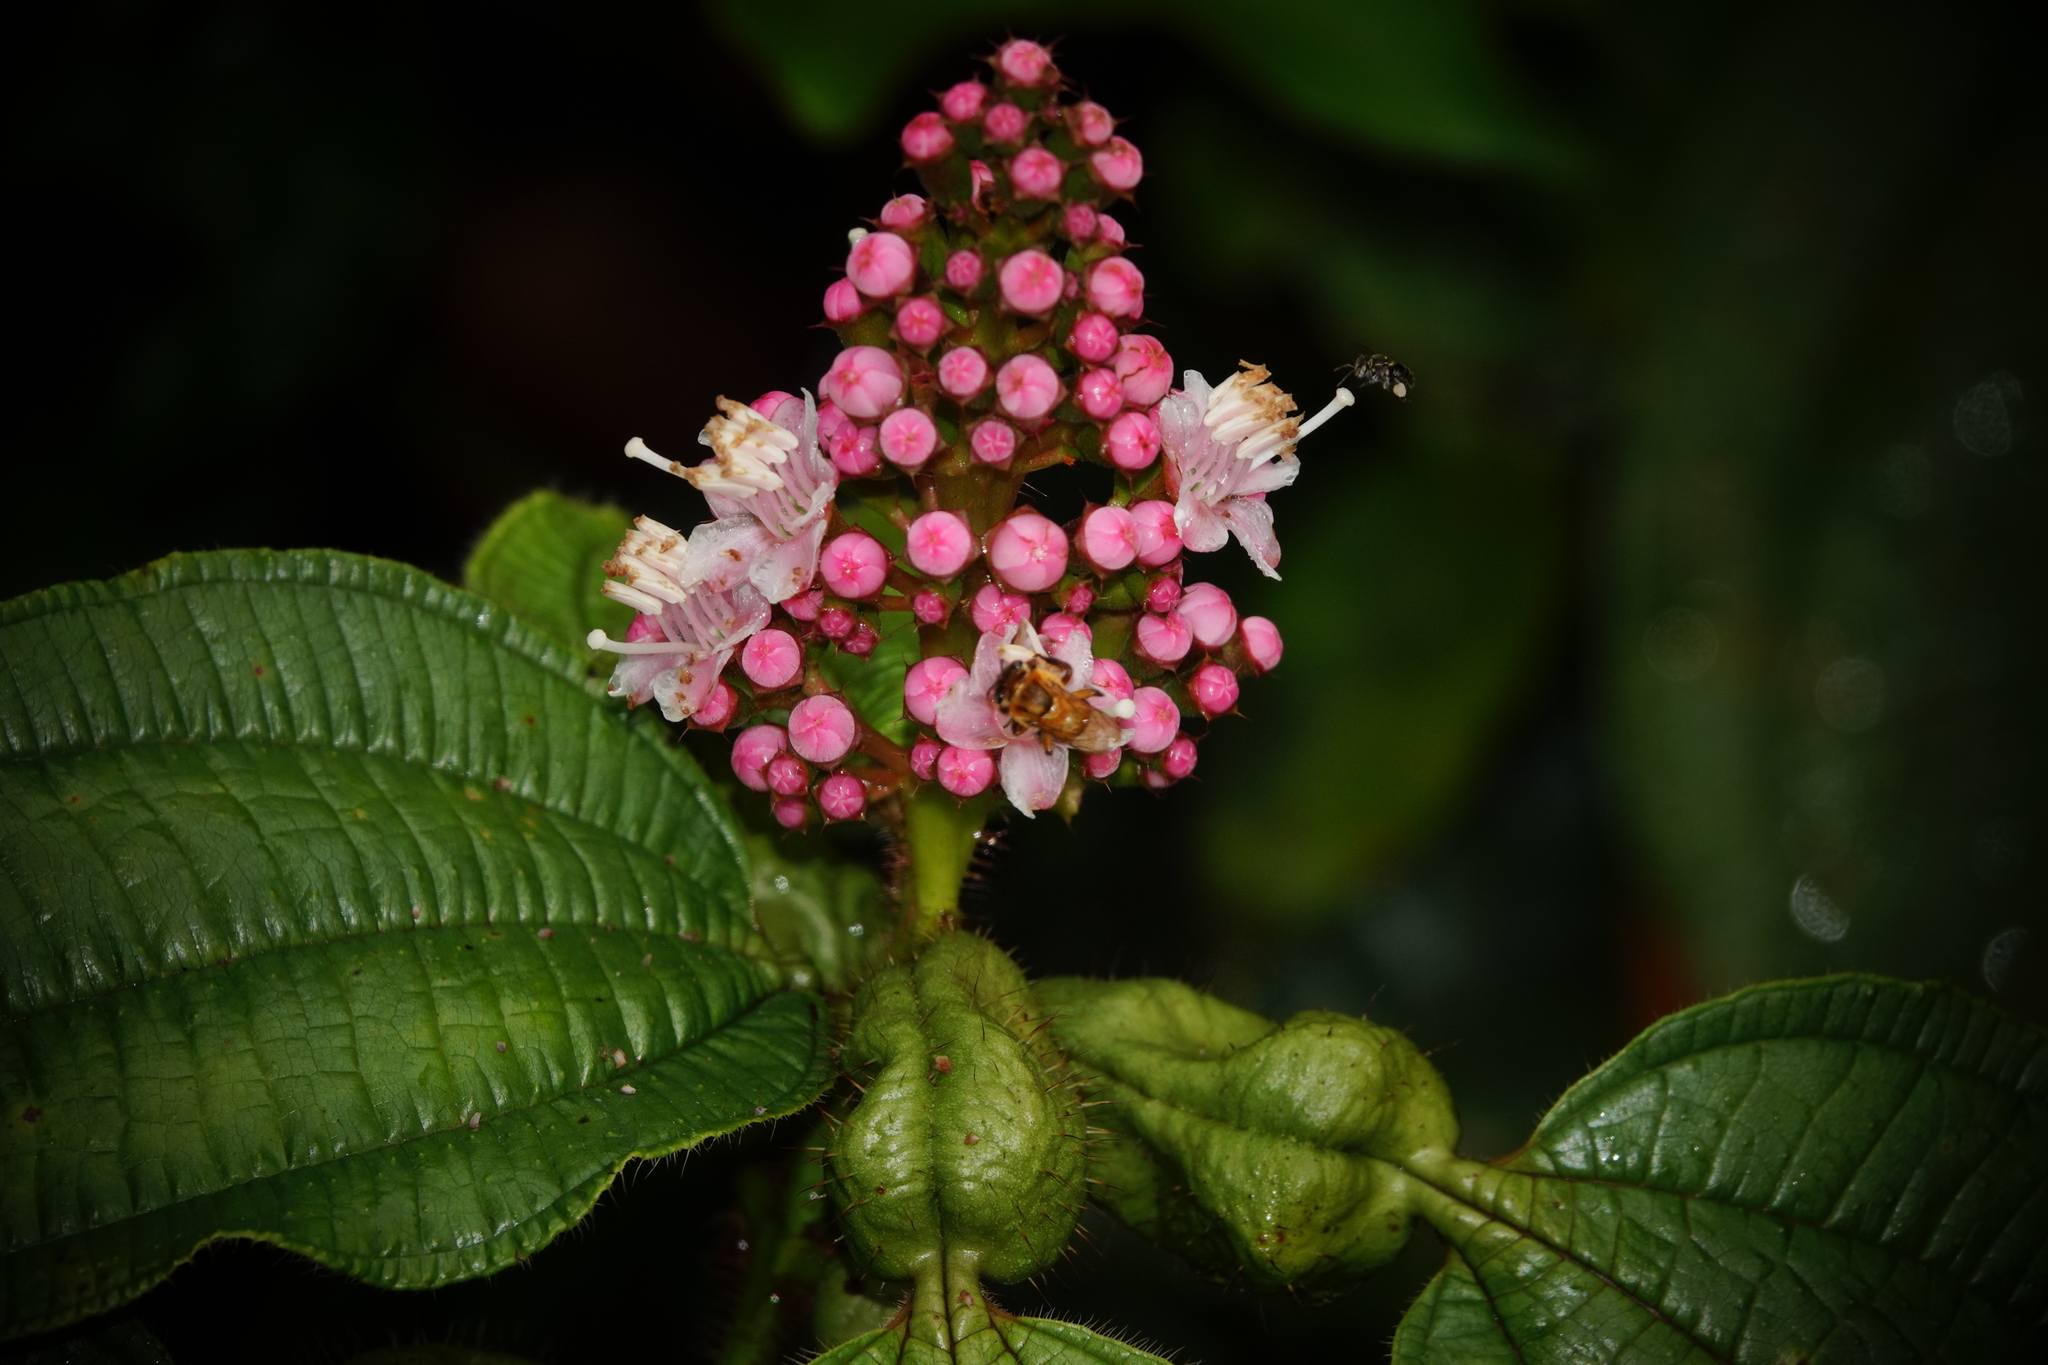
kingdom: Plantae
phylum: Tracheophyta
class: Magnoliopsida
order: Myrtales
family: Melastomataceae
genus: Miconia
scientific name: Miconia tococa
